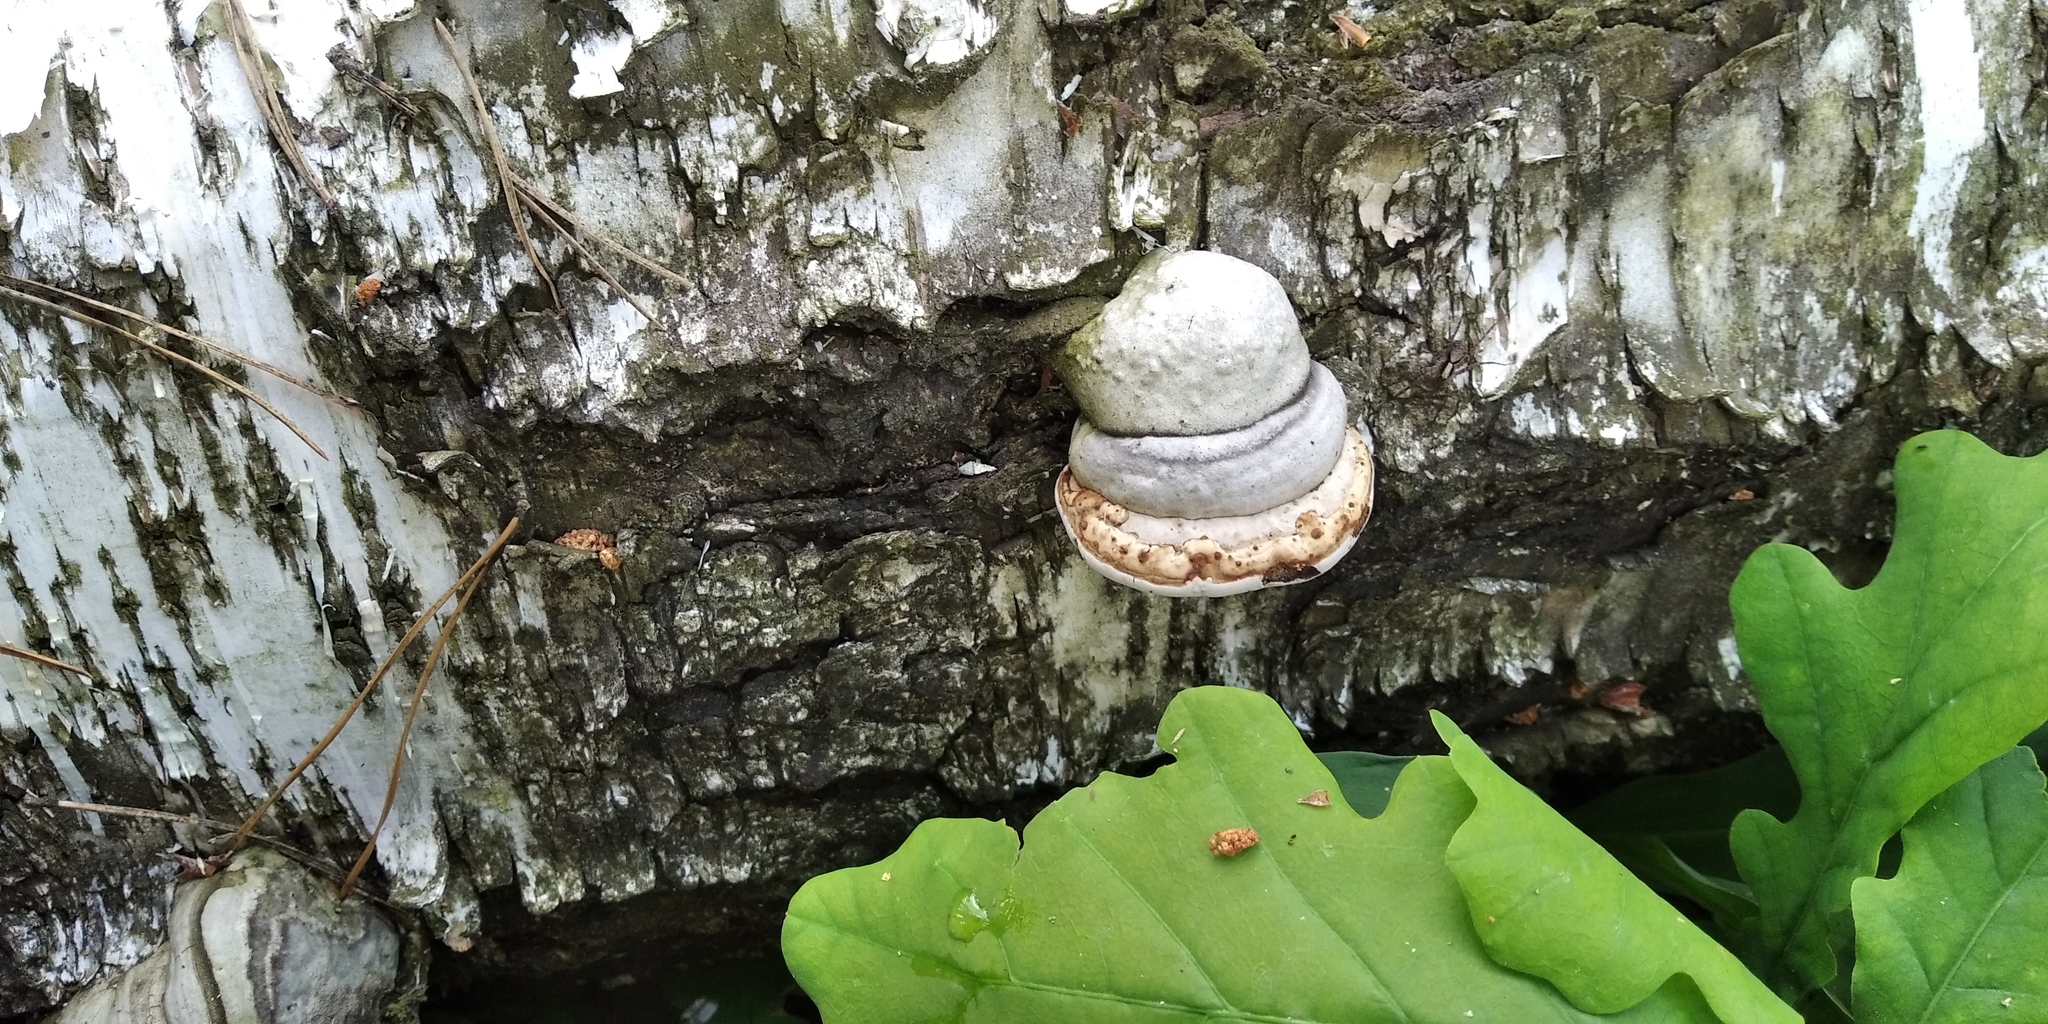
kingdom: Fungi
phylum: Basidiomycota
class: Agaricomycetes
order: Polyporales
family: Polyporaceae
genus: Fomes
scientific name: Fomes fomentarius
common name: Hoof fungus
